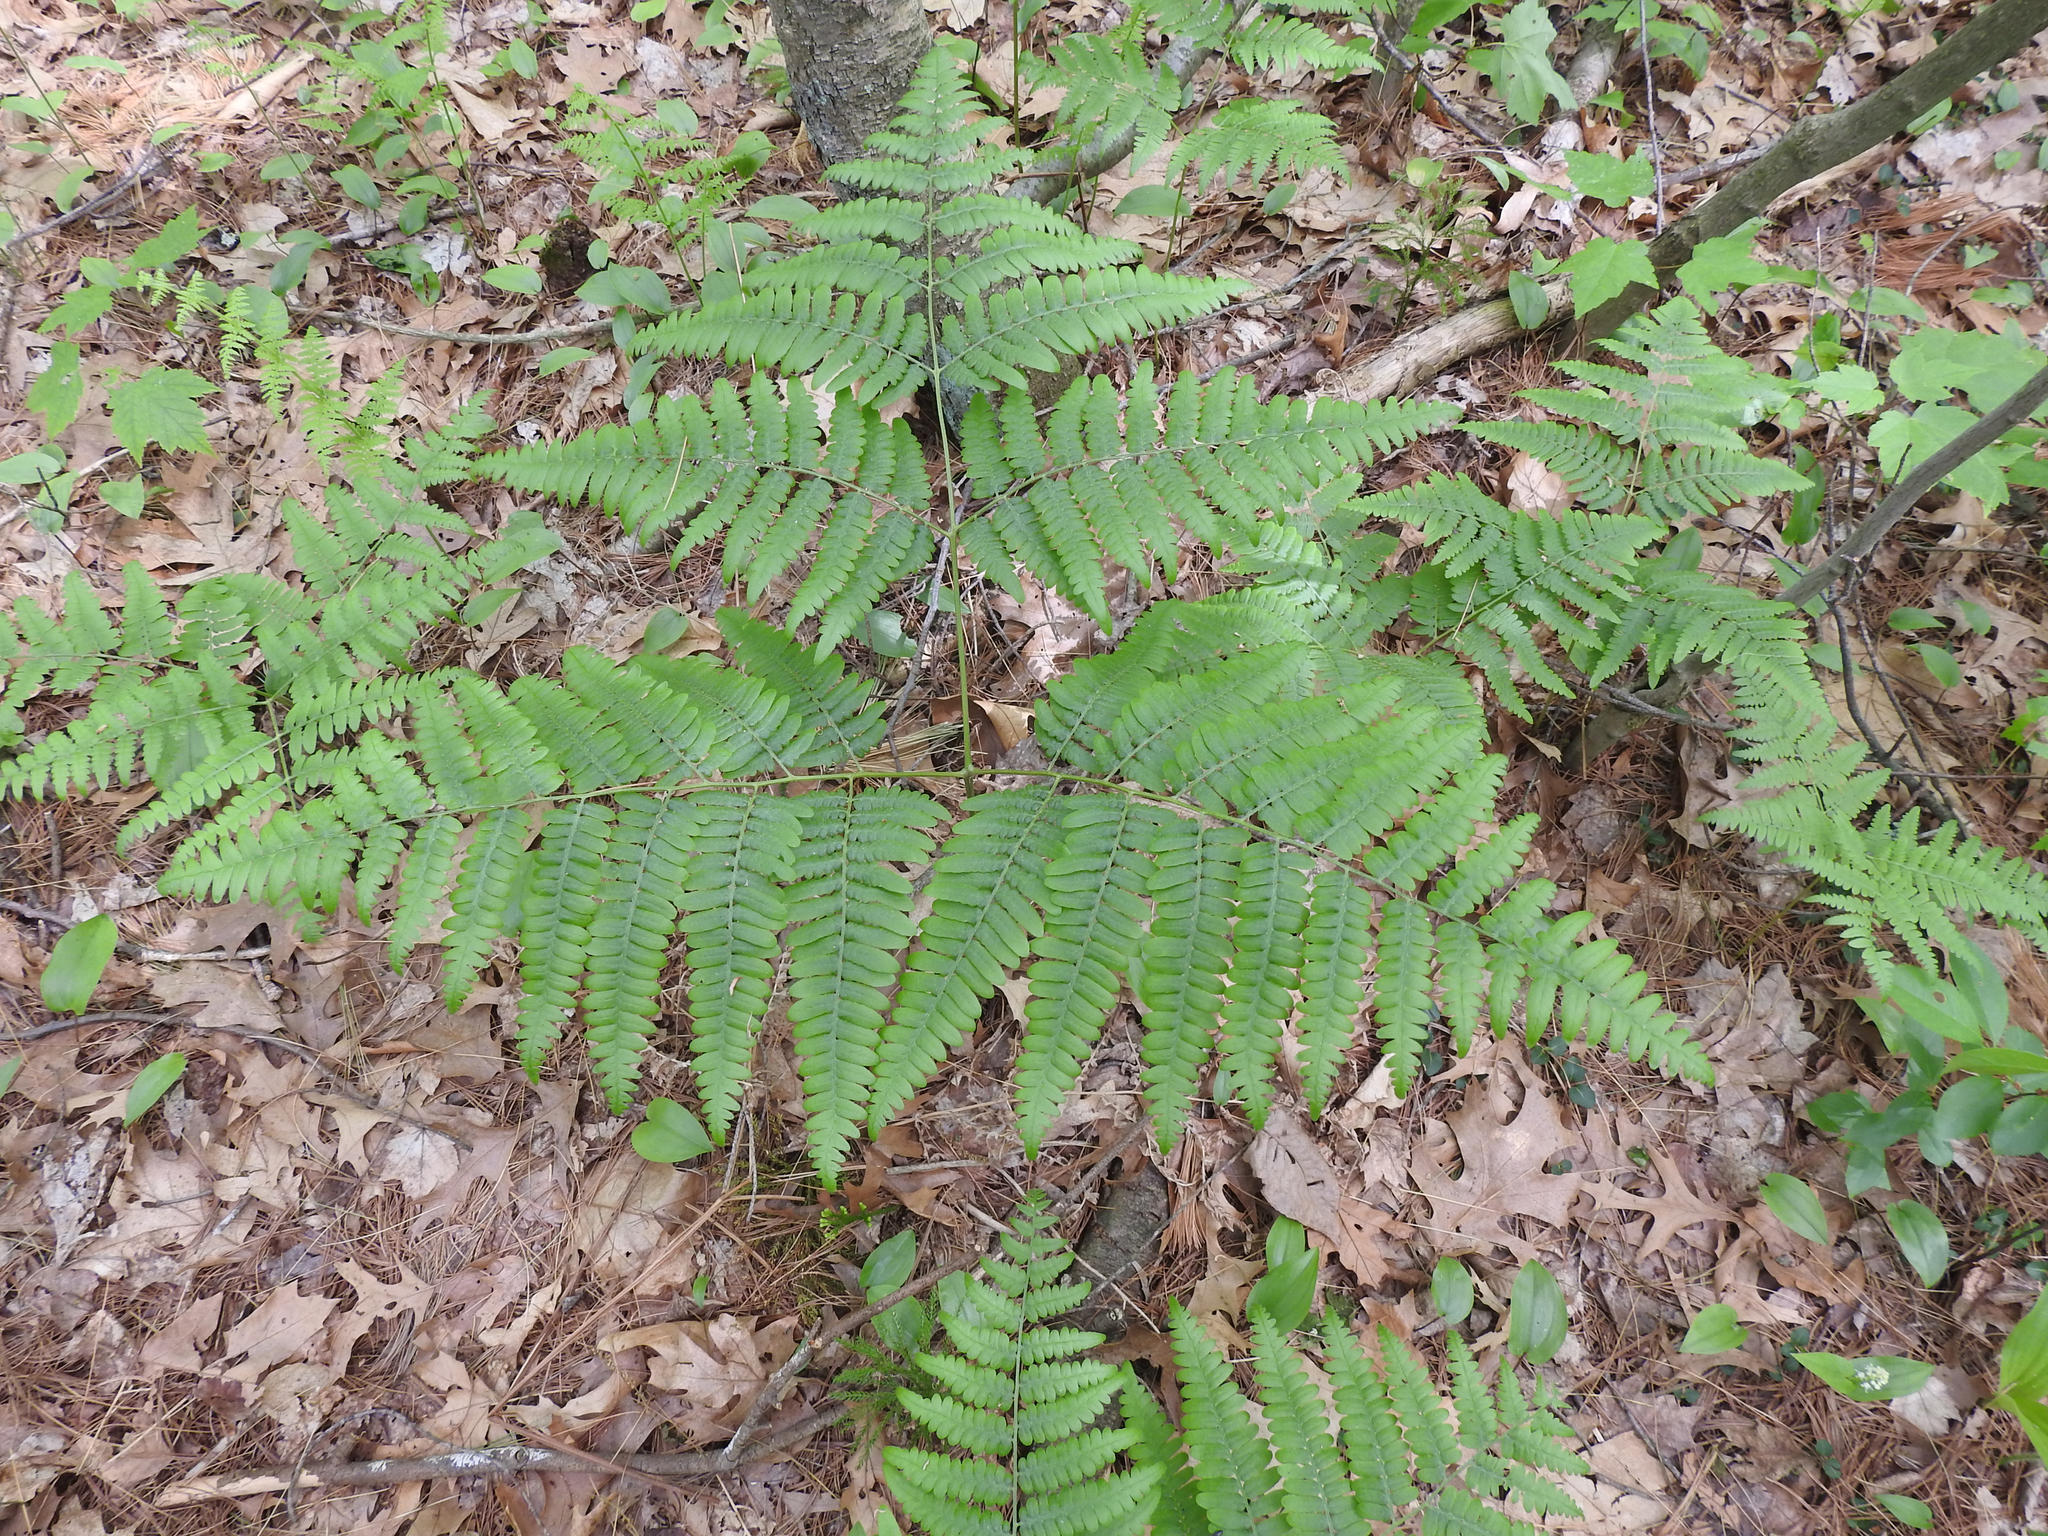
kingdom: Plantae
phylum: Tracheophyta
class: Polypodiopsida
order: Polypodiales
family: Dennstaedtiaceae
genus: Pteridium
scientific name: Pteridium aquilinum
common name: Bracken
